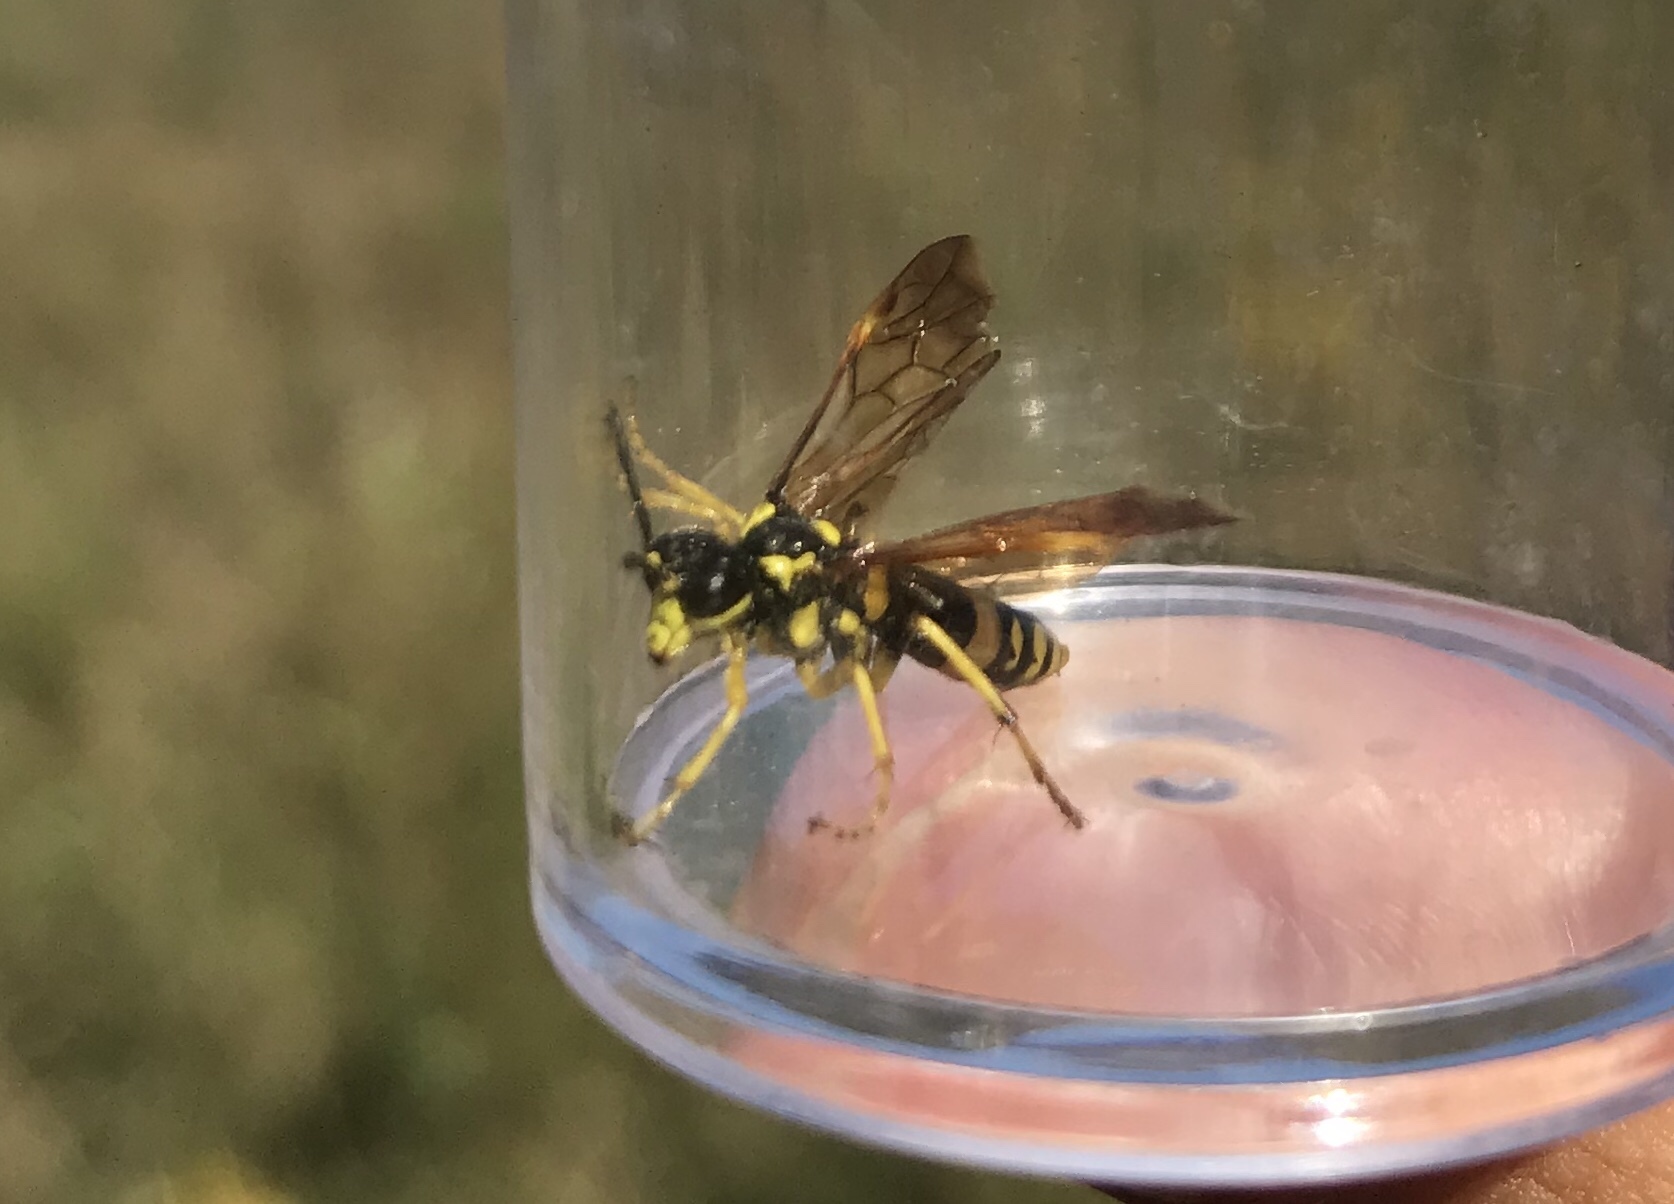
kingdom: Animalia
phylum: Arthropoda
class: Insecta
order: Hymenoptera
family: Tenthredinidae
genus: Tenthredo
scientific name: Tenthredo
